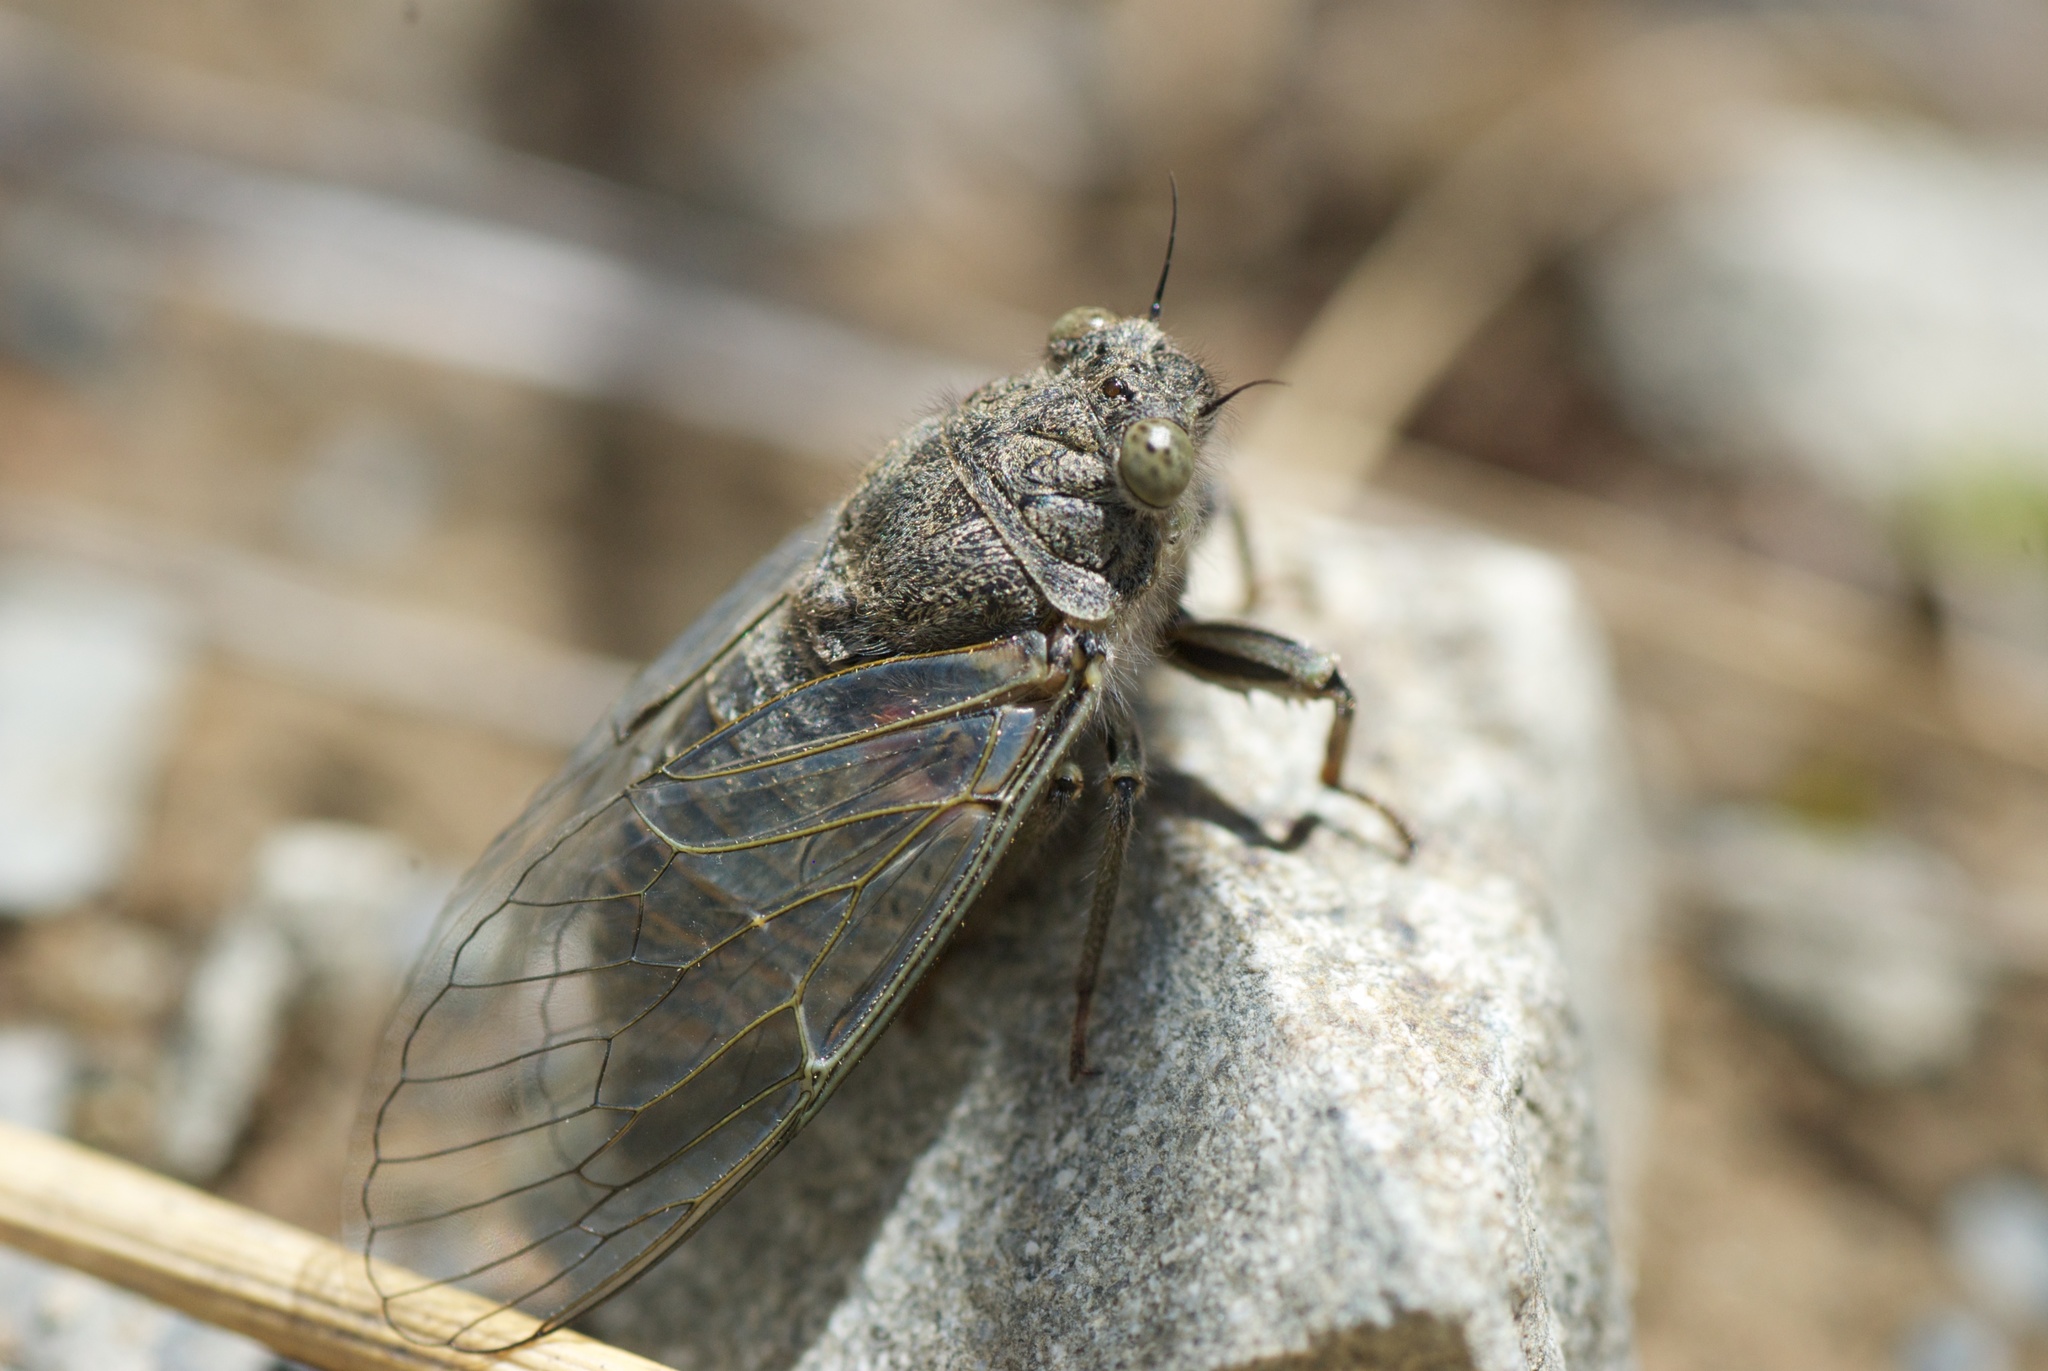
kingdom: Animalia
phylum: Arthropoda
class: Insecta
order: Hemiptera
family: Cicadidae
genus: Maoricicada
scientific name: Maoricicada mangu
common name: Canterbury scree cicada
